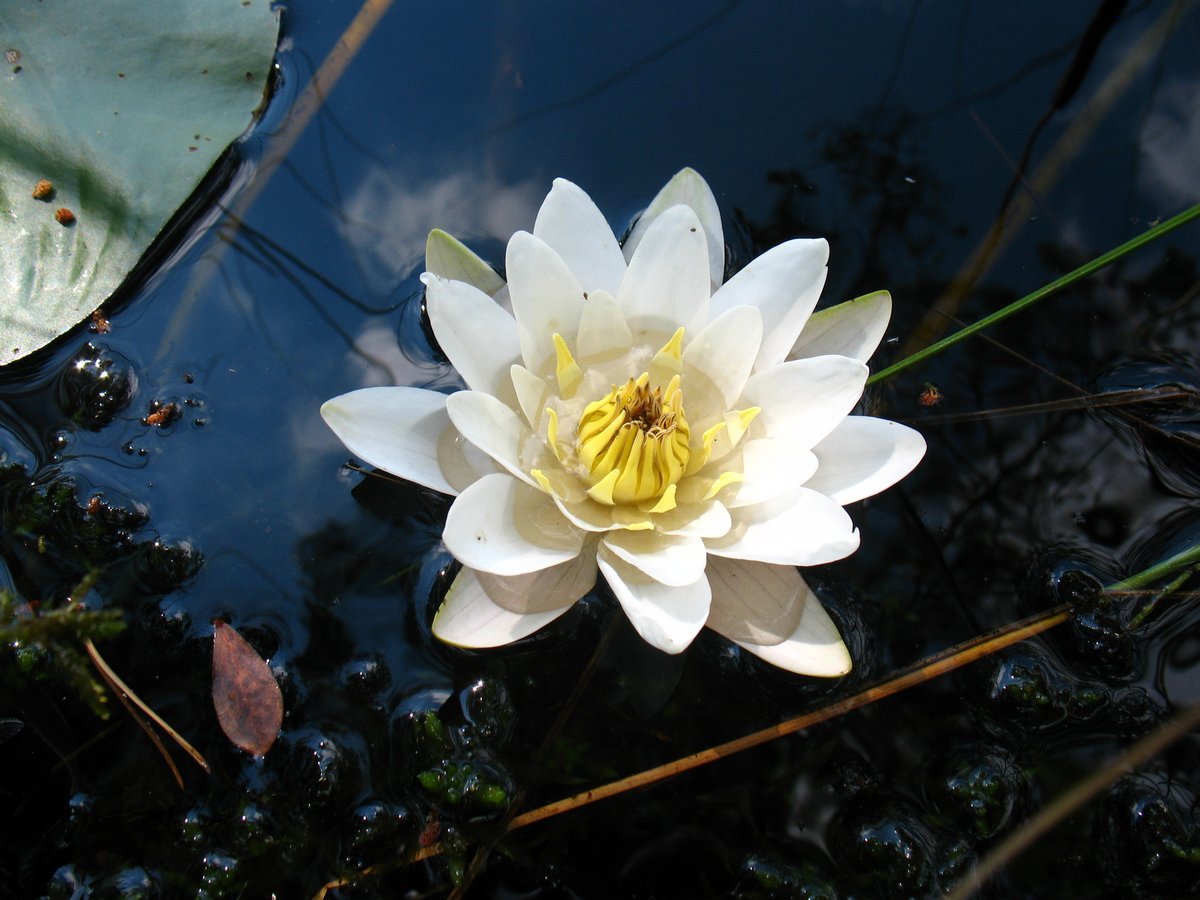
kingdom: Plantae
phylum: Tracheophyta
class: Magnoliopsida
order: Nymphaeales
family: Nymphaeaceae
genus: Nymphaea
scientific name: Nymphaea alba
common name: White water-lily
